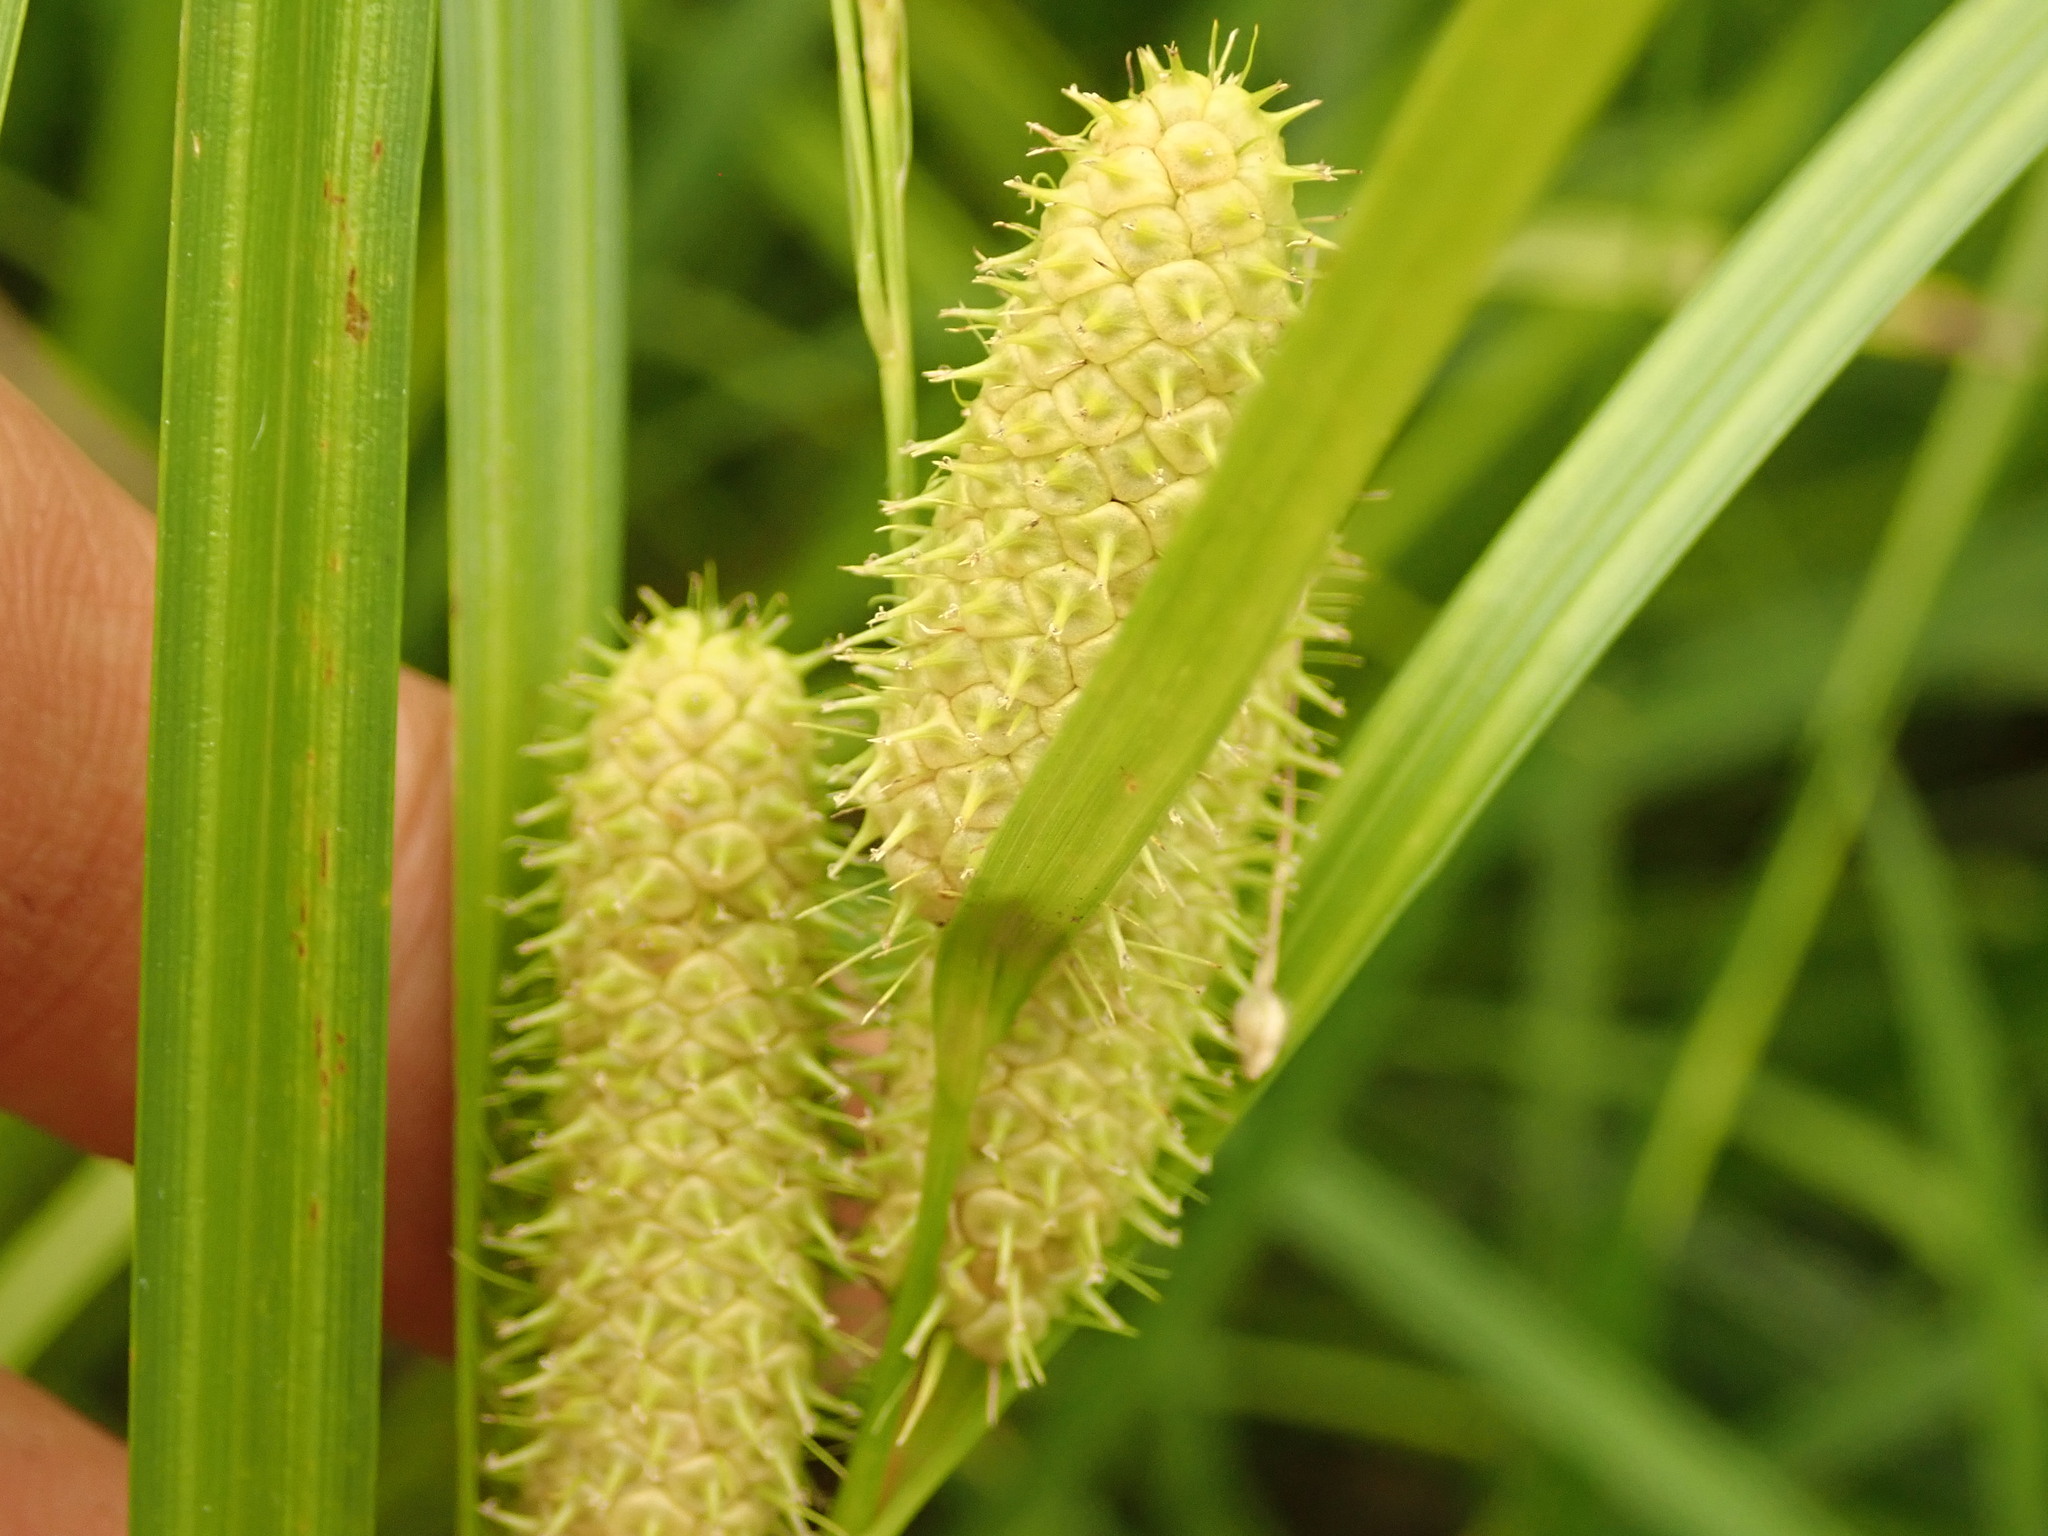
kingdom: Plantae
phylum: Tracheophyta
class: Liliopsida
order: Poales
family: Cyperaceae
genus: Carex
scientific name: Carex frankii
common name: Frank's sedge
